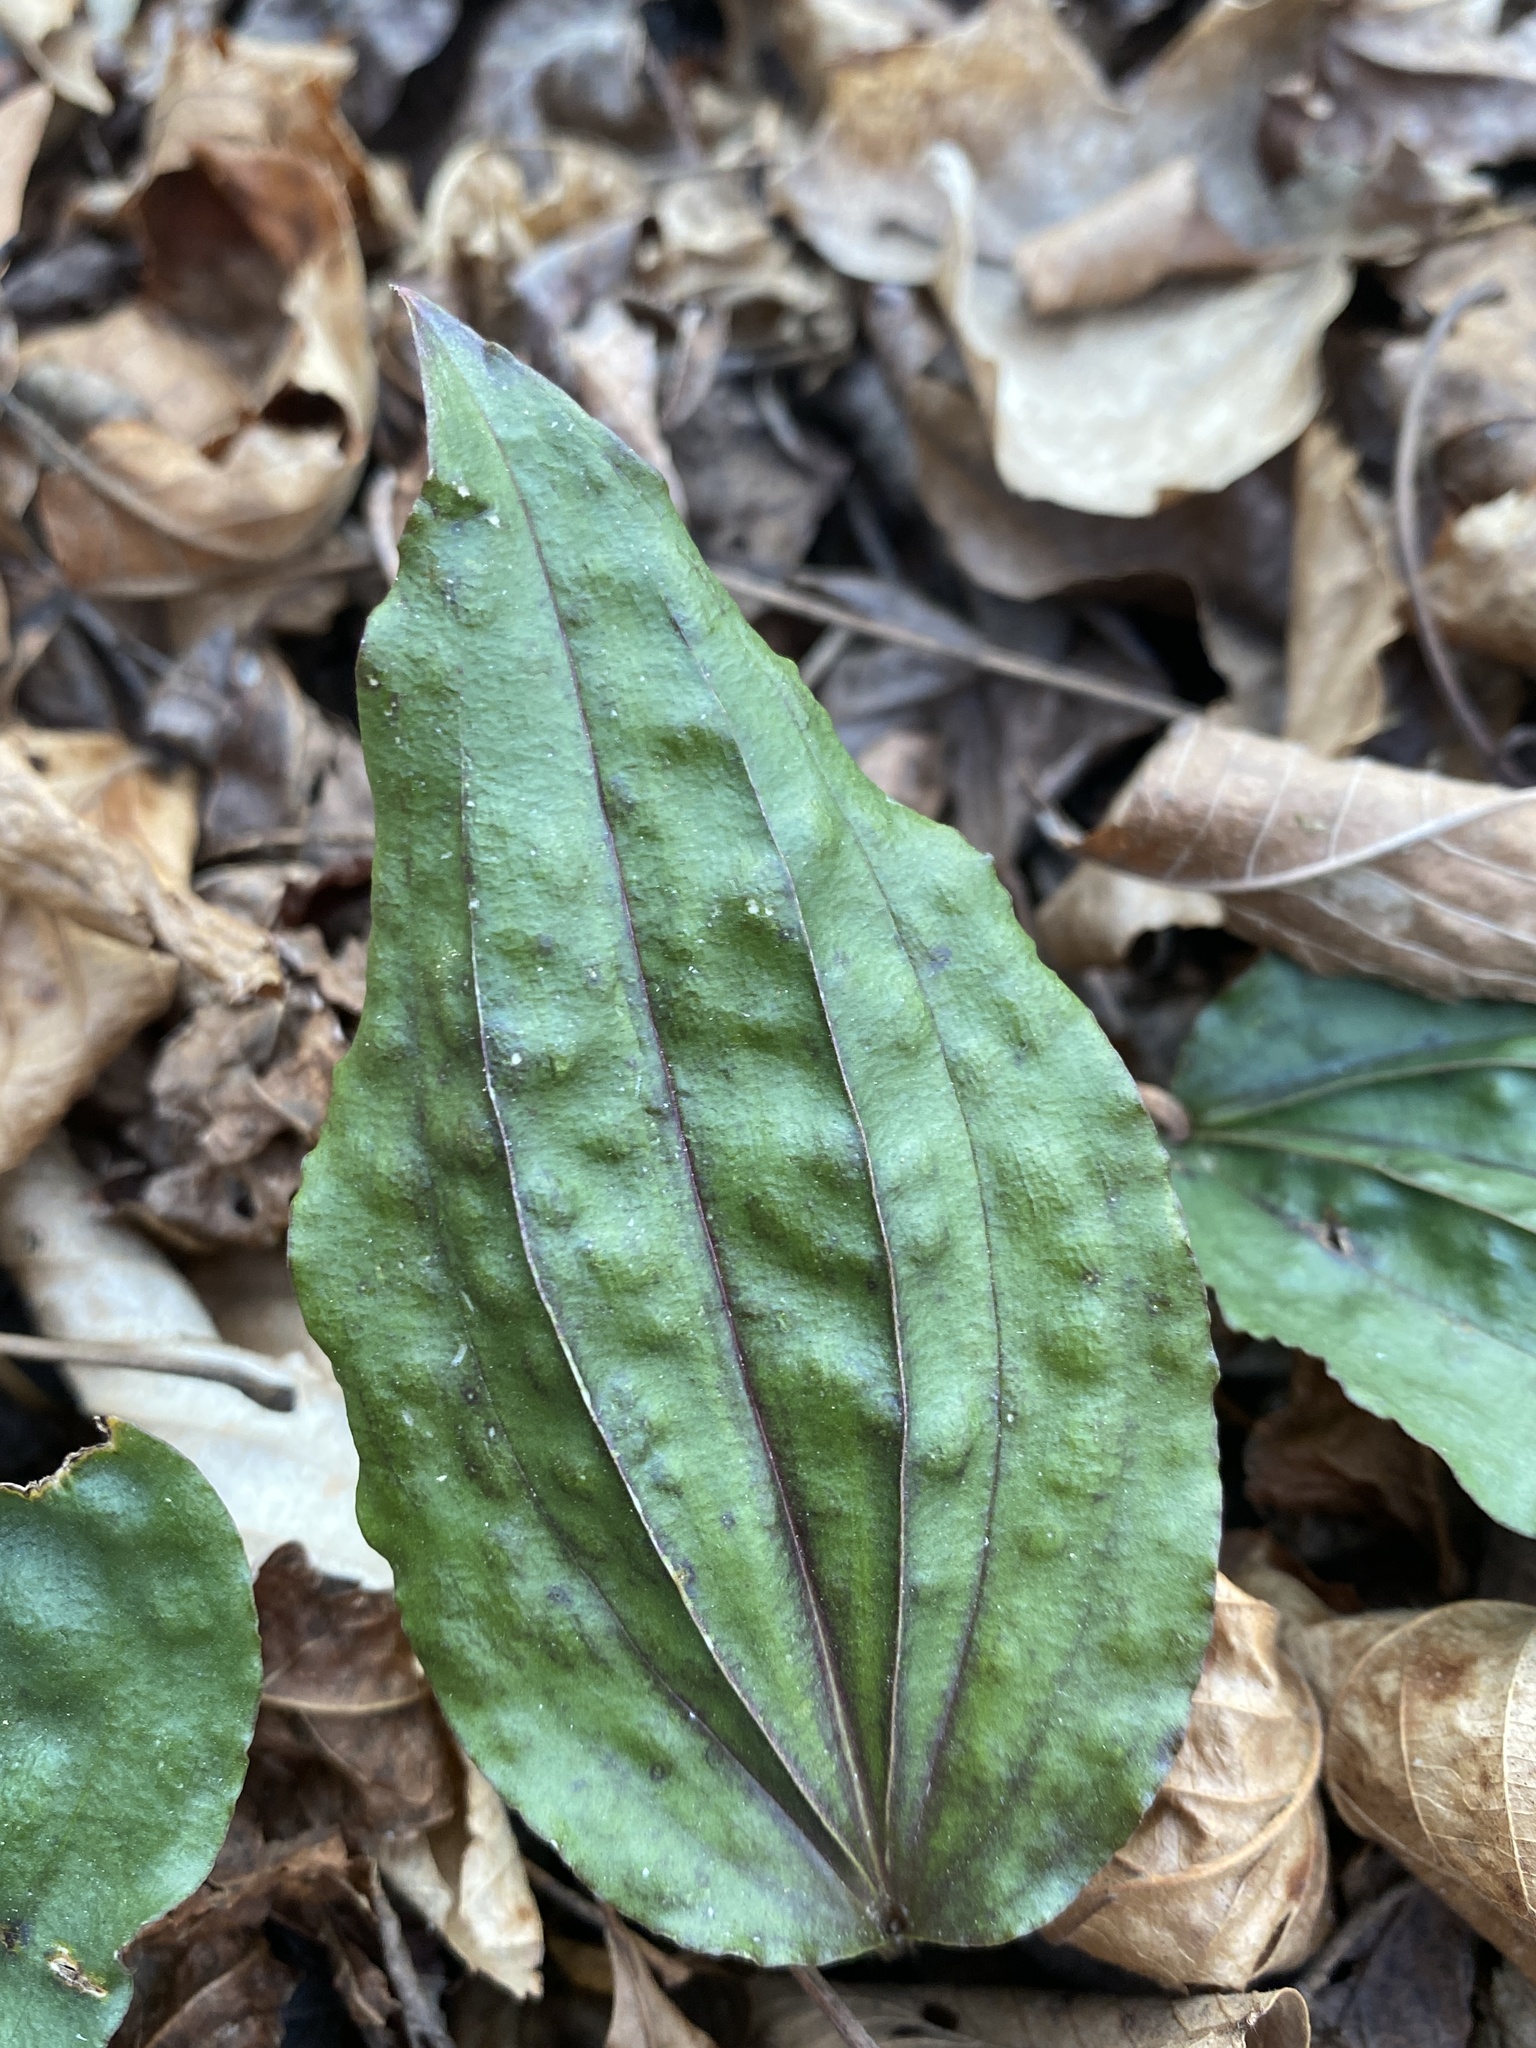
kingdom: Plantae
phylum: Tracheophyta
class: Liliopsida
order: Asparagales
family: Orchidaceae
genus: Tipularia
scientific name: Tipularia discolor
